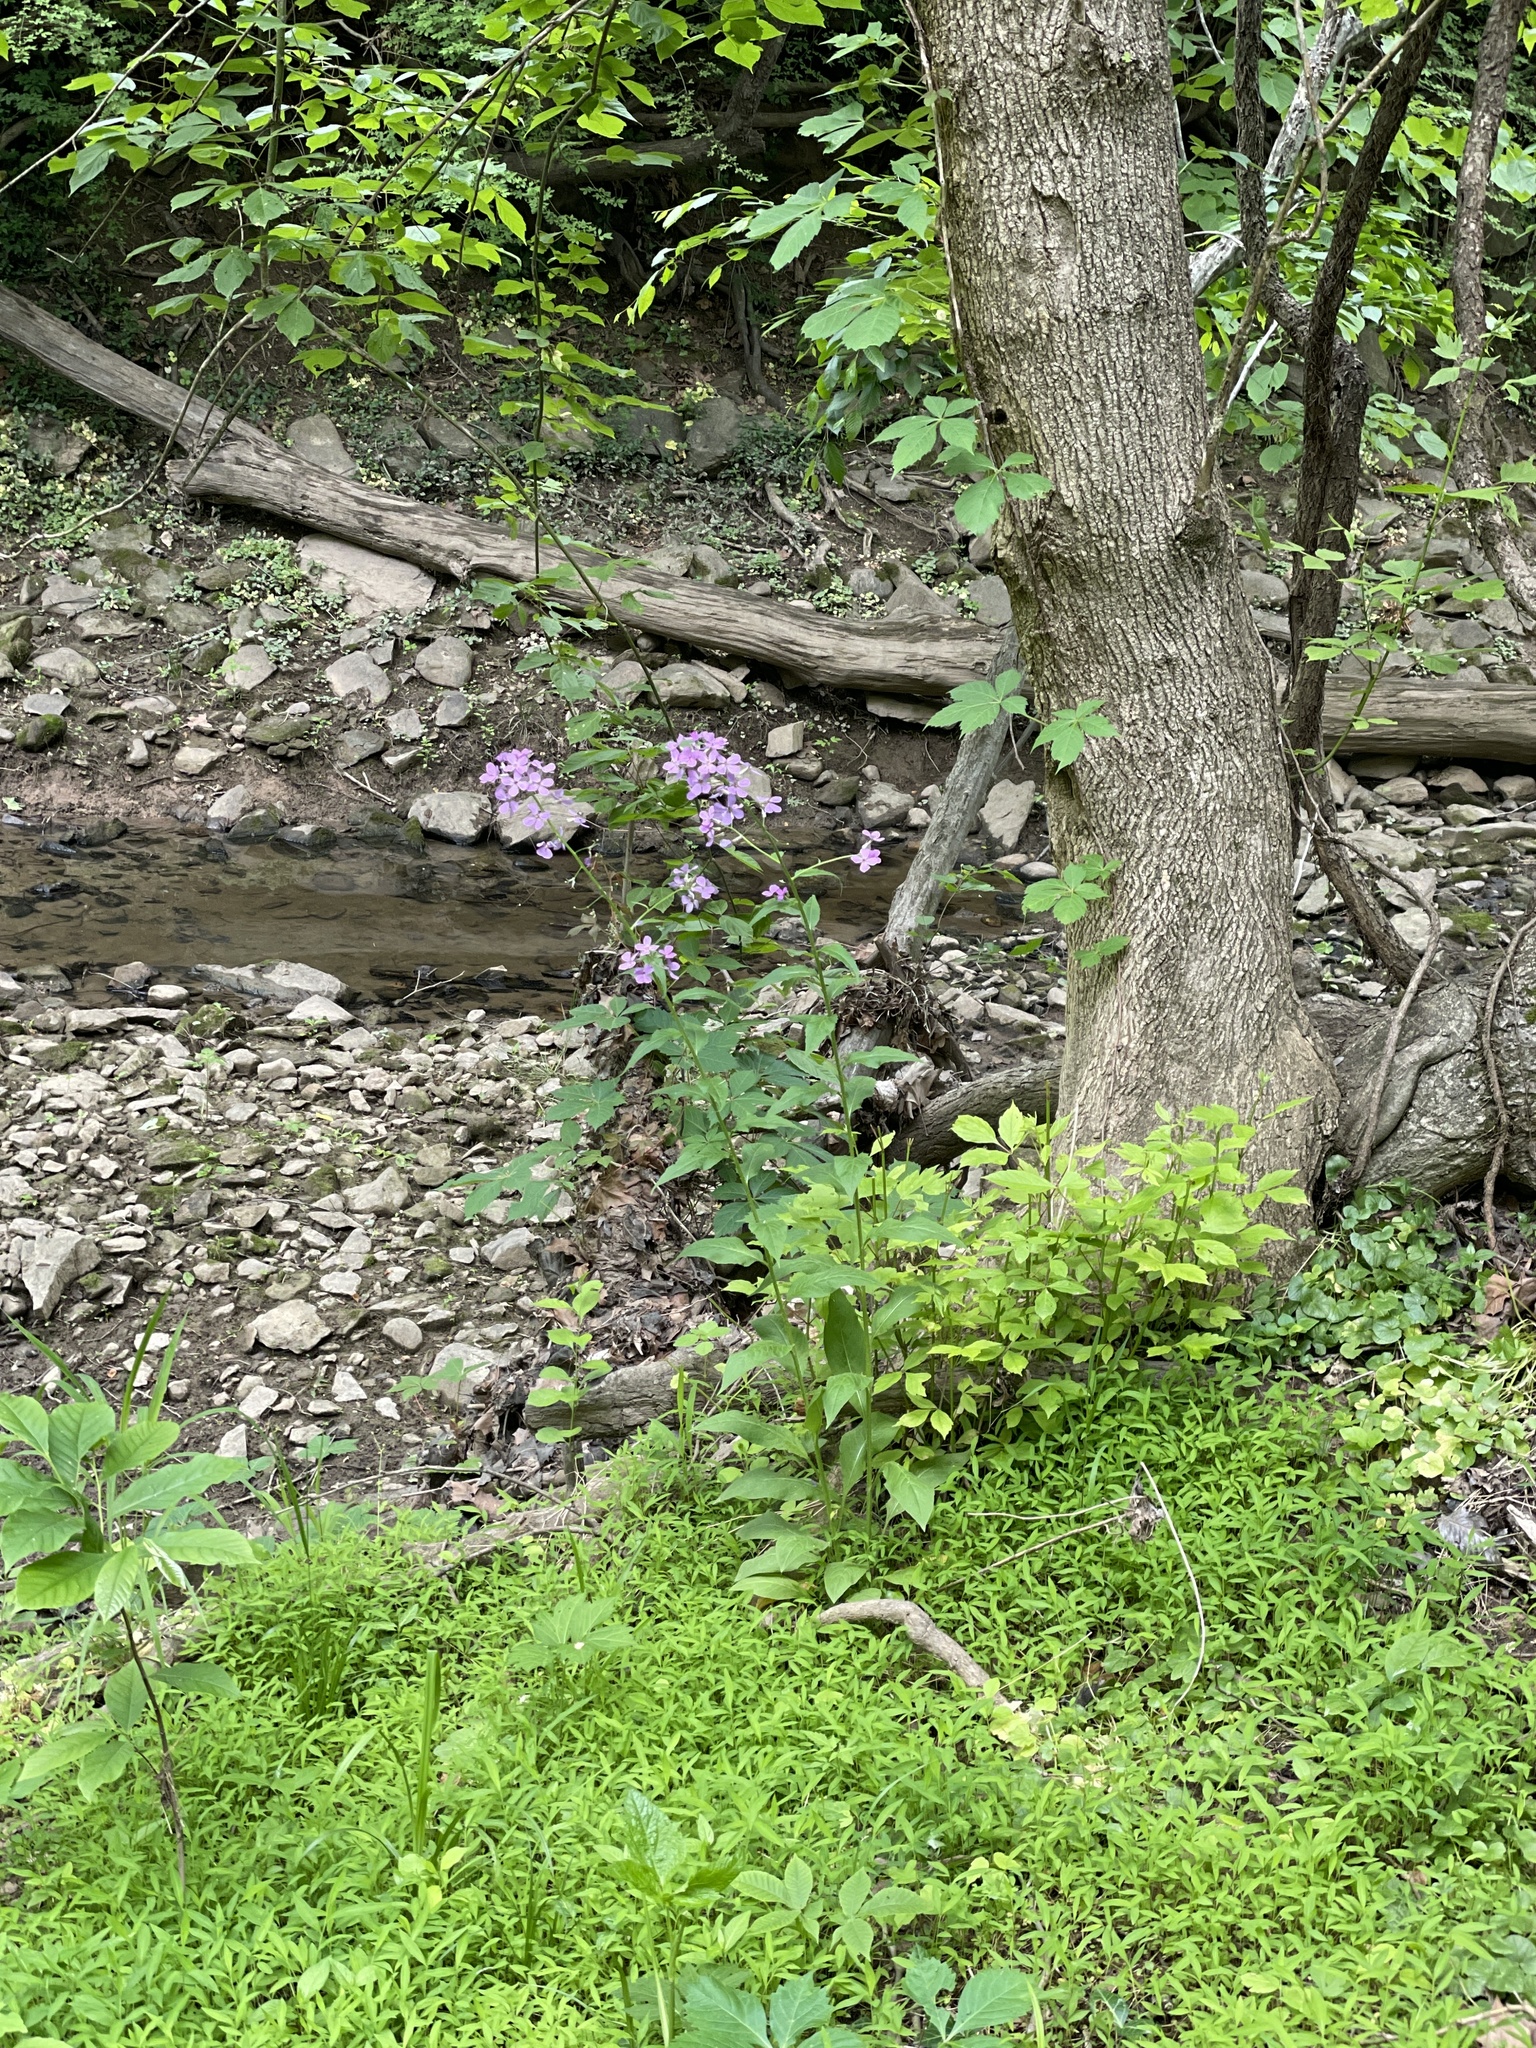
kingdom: Plantae
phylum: Tracheophyta
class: Magnoliopsida
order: Brassicales
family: Brassicaceae
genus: Hesperis
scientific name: Hesperis matronalis
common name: Dame's-violet
